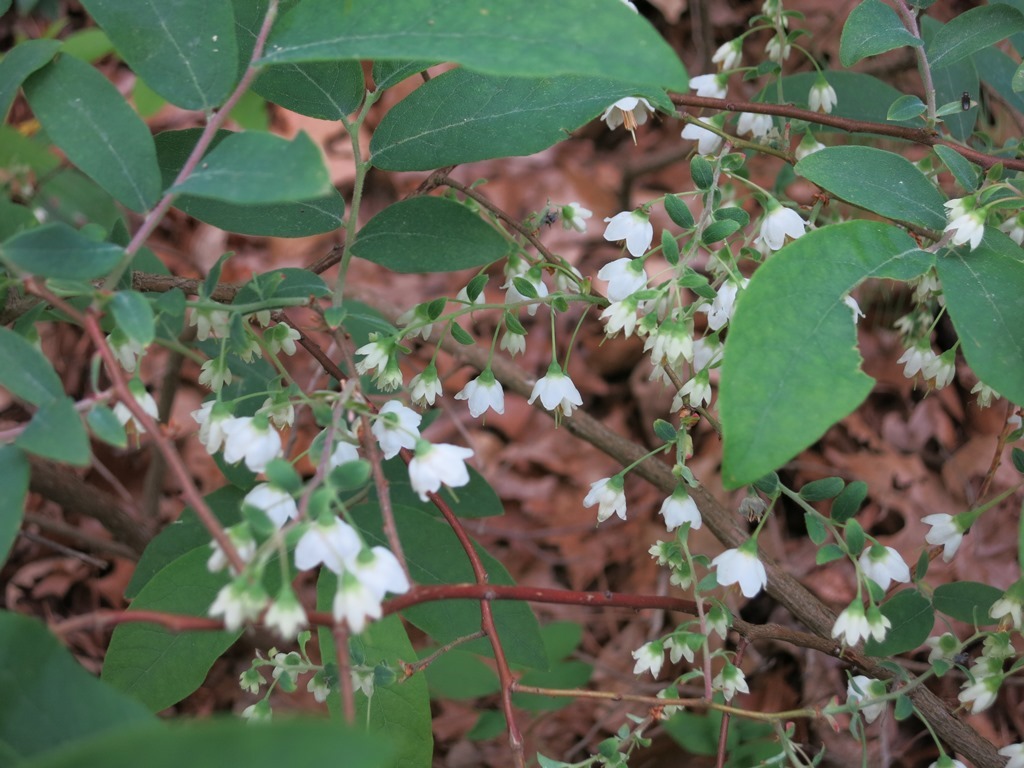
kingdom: Plantae
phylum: Tracheophyta
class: Magnoliopsida
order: Ericales
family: Ericaceae
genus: Vaccinium
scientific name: Vaccinium stamineum
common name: Deerberry
